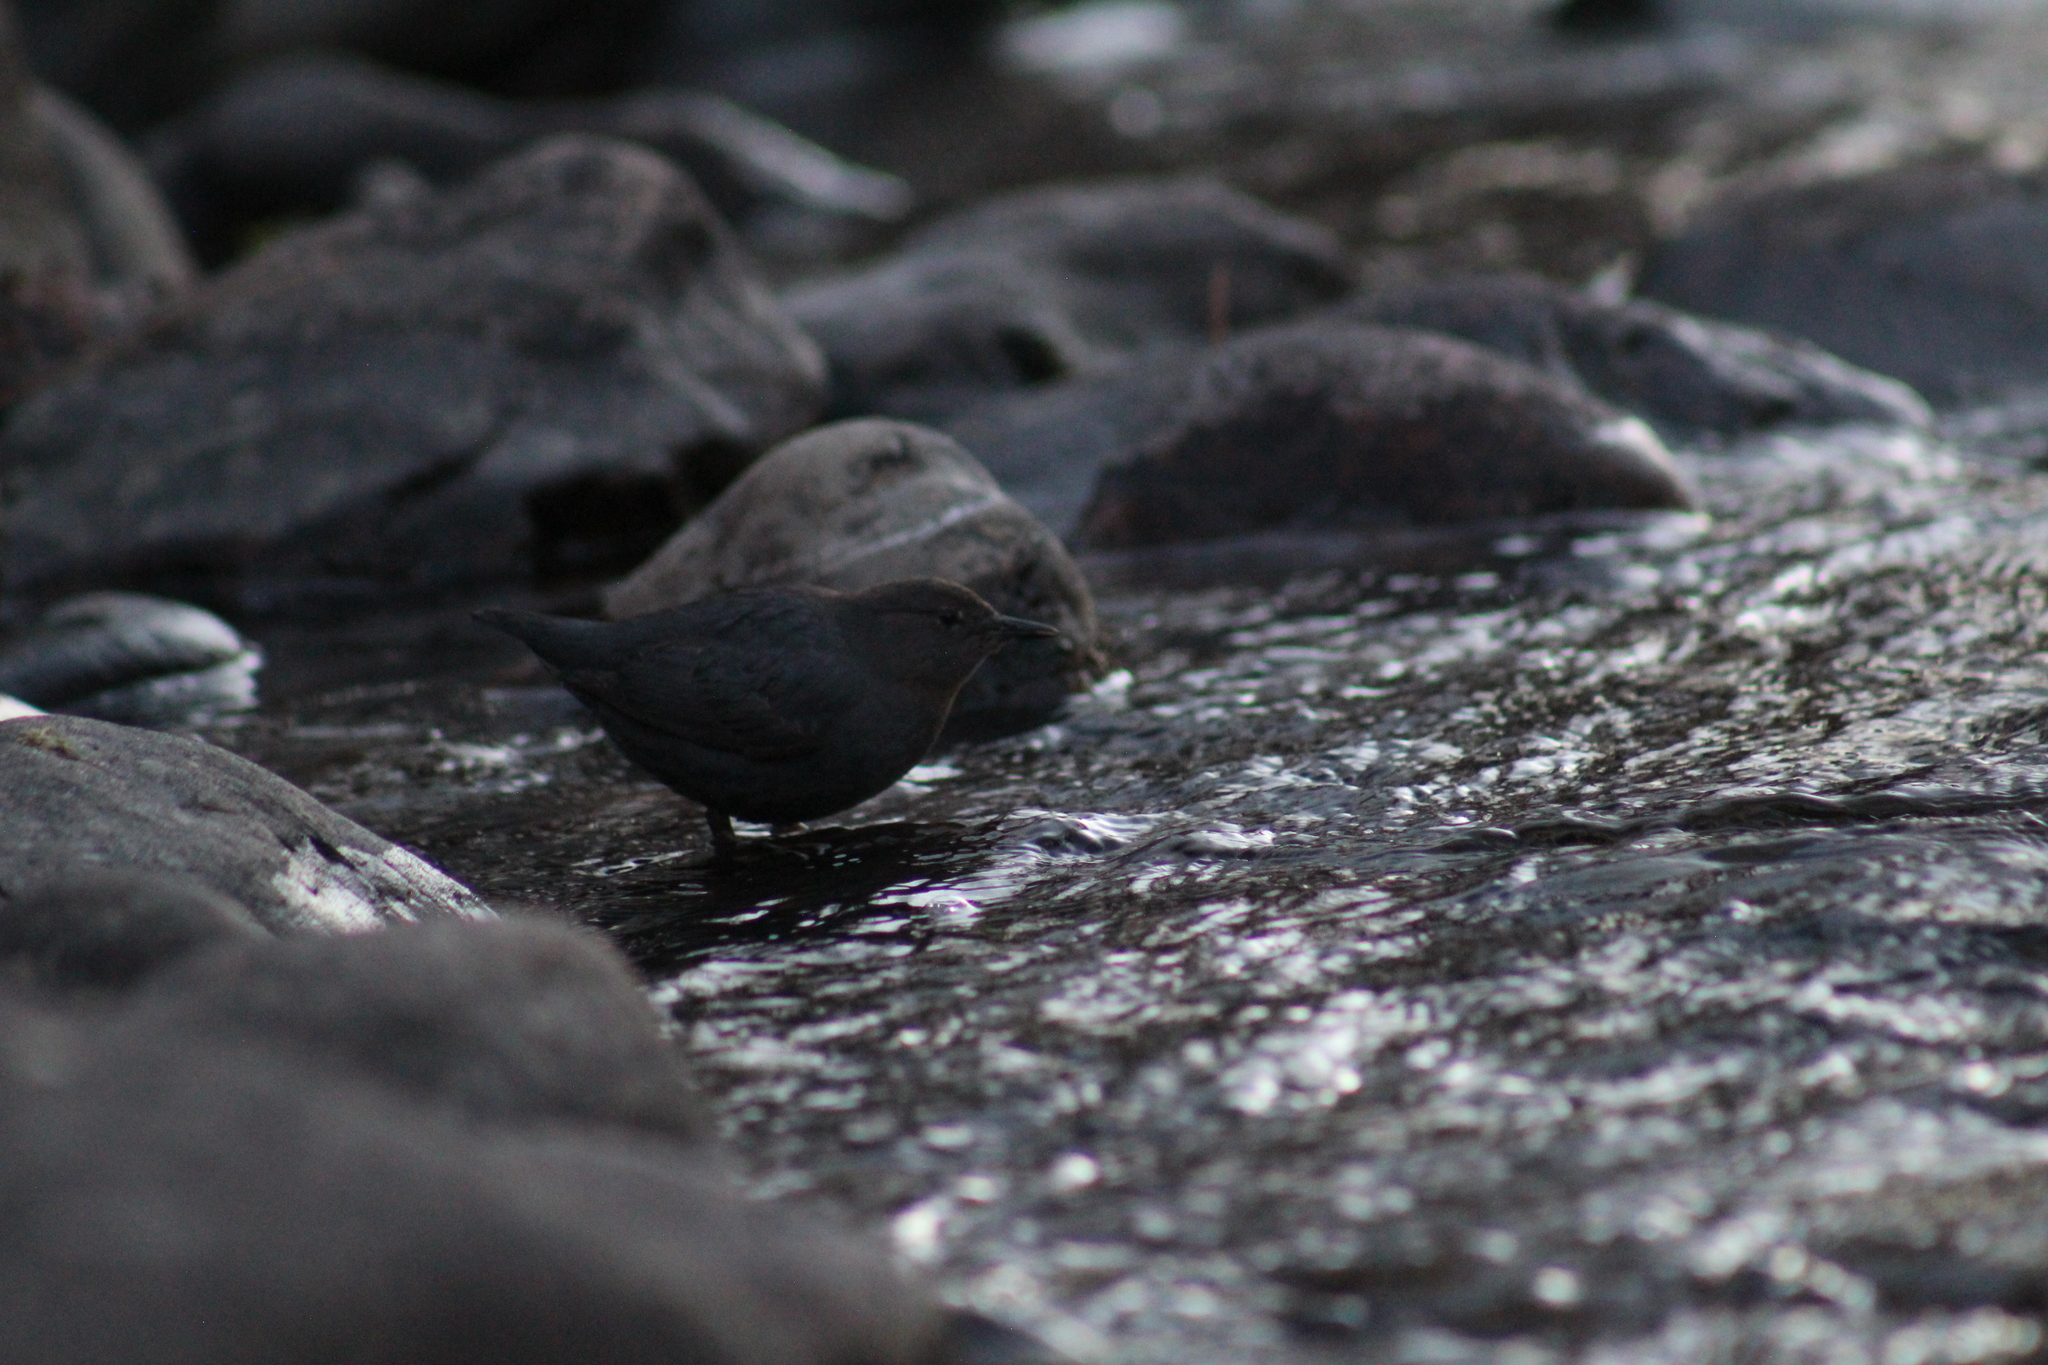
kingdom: Animalia
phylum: Chordata
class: Aves
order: Passeriformes
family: Cinclidae
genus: Cinclus
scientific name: Cinclus mexicanus
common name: American dipper
